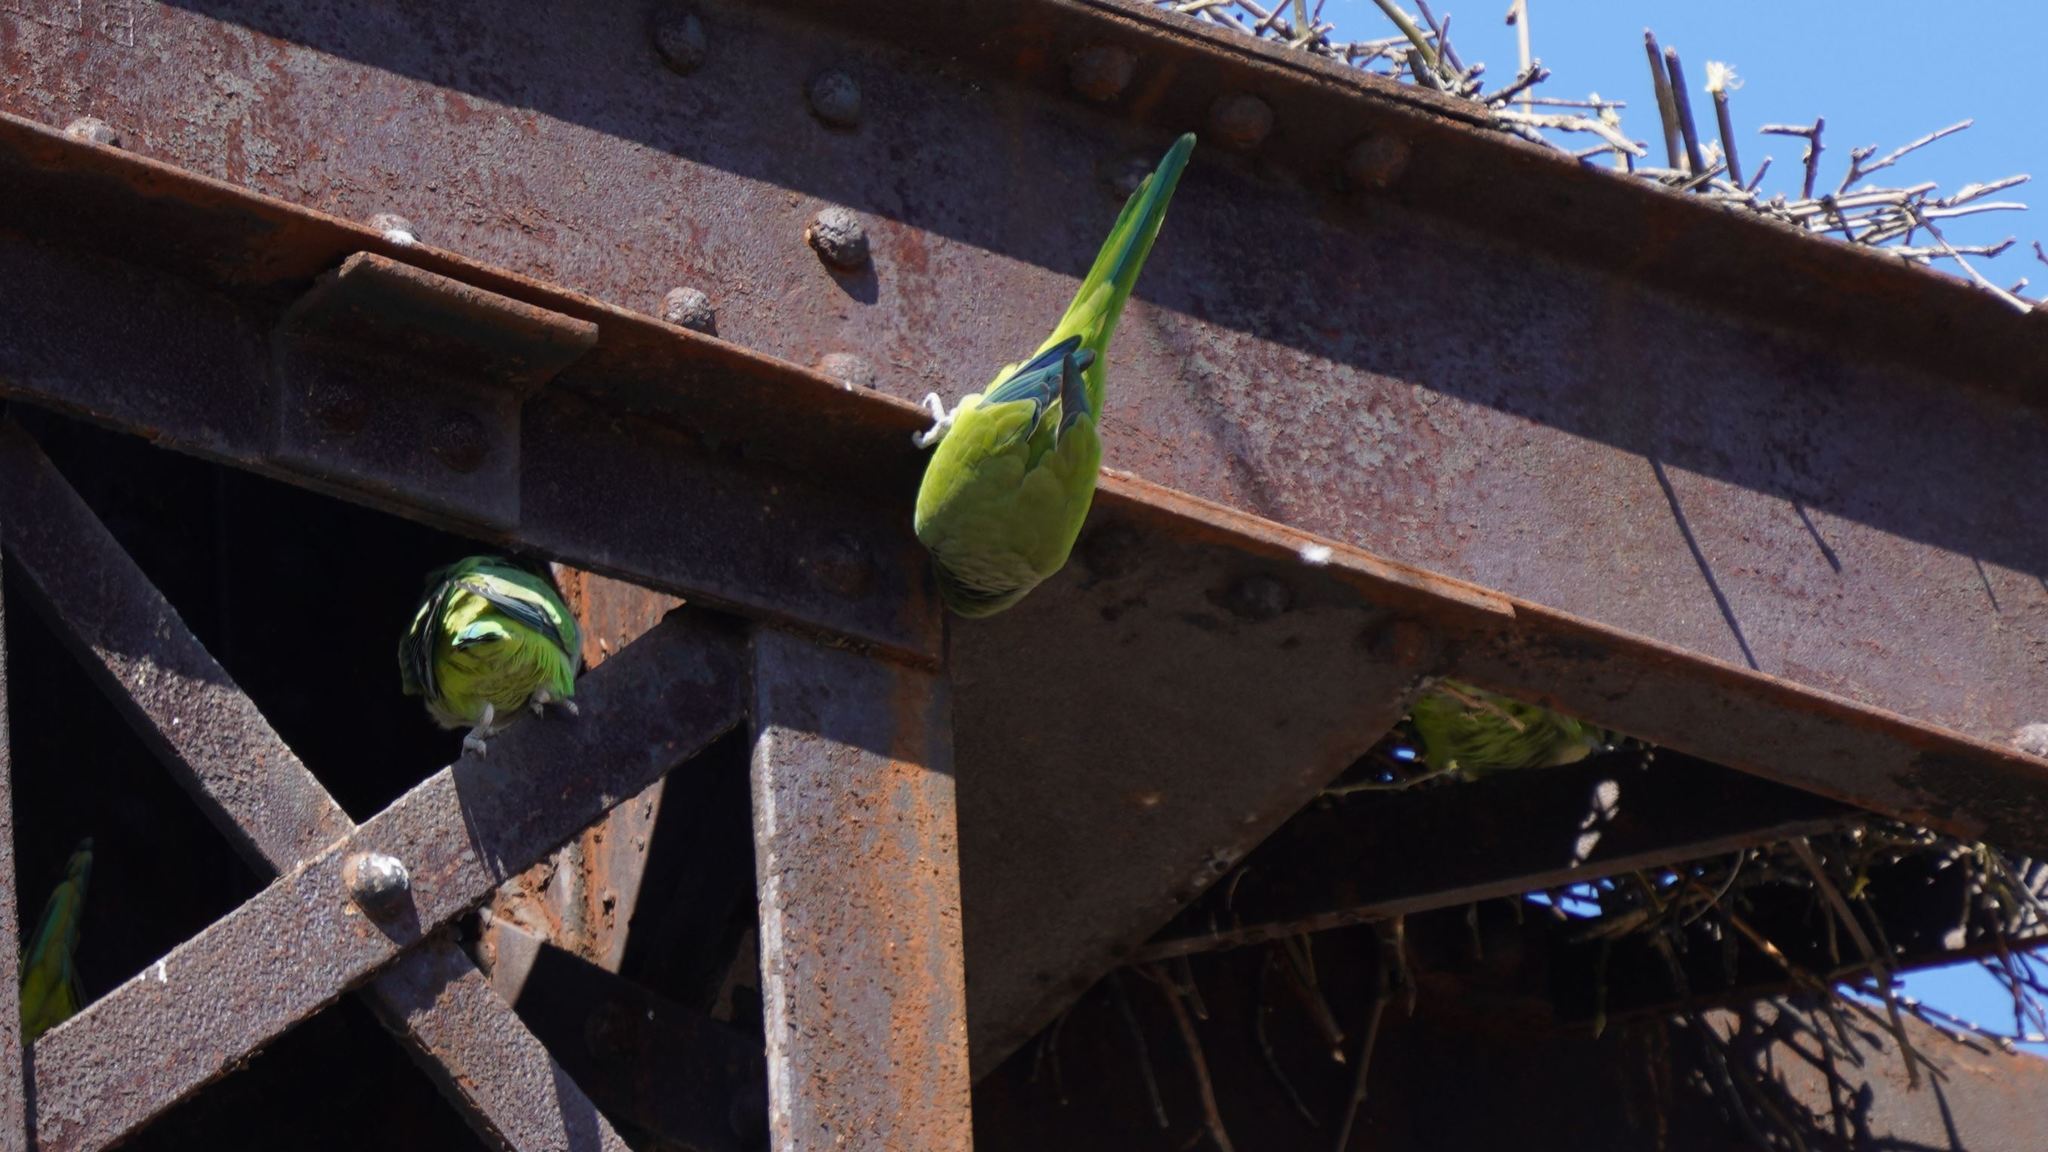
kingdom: Animalia
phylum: Chordata
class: Aves
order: Psittaciformes
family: Psittacidae
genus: Myiopsitta
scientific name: Myiopsitta monachus
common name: Monk parakeet
